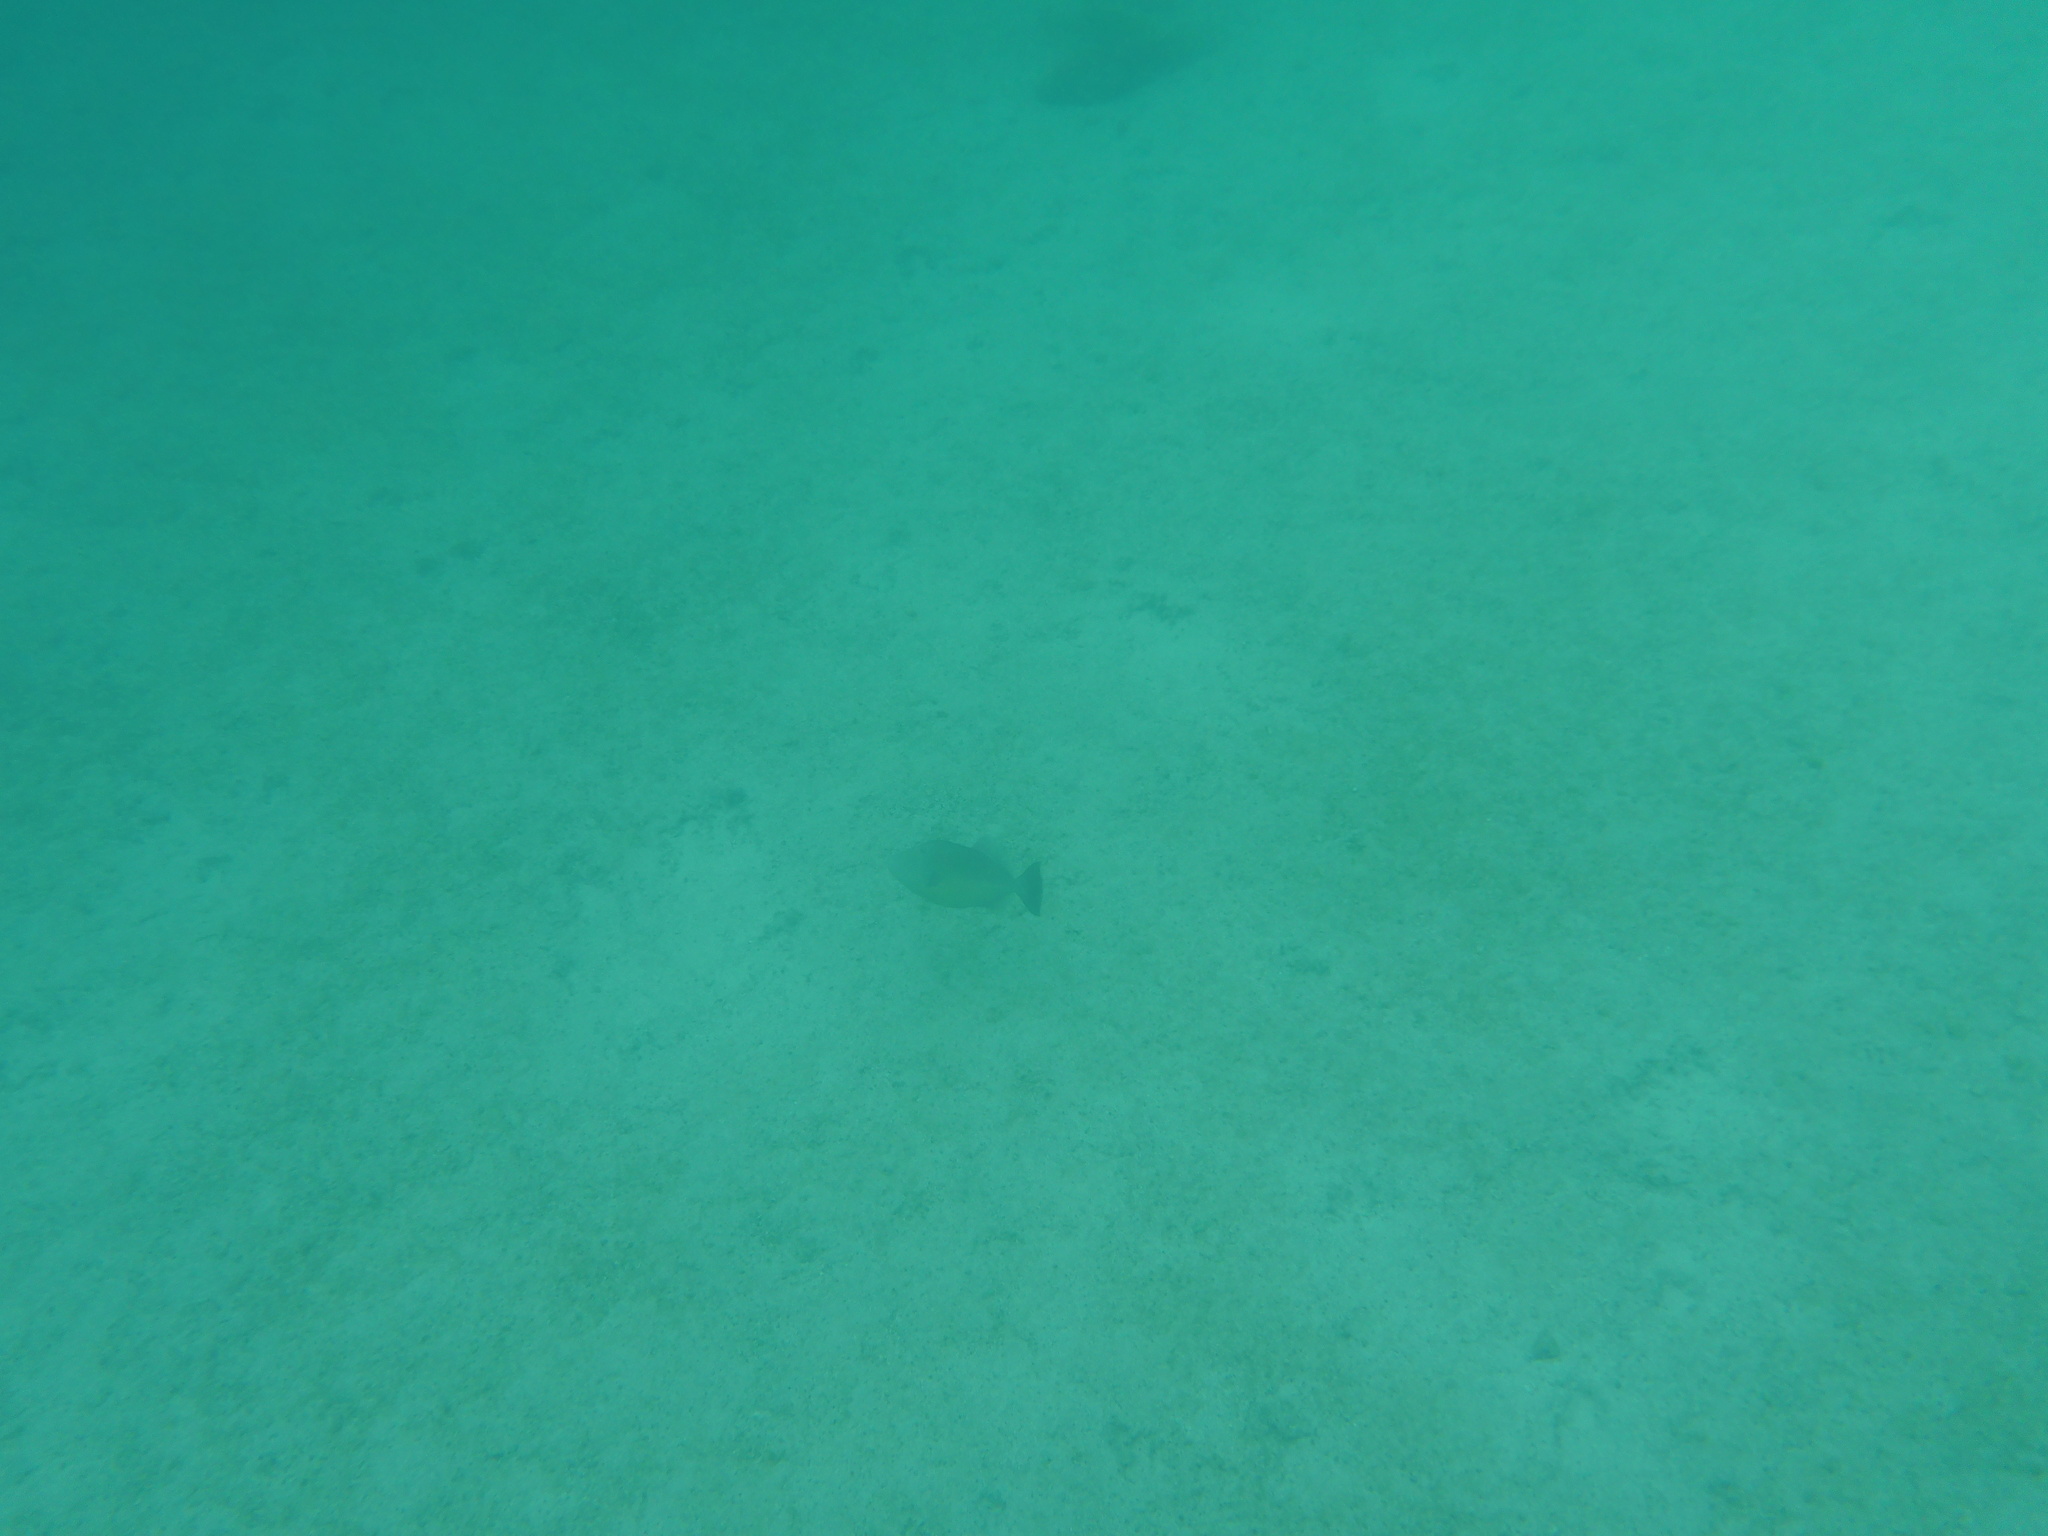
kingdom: Animalia
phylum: Chordata
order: Tetraodontiformes
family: Balistidae
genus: Sufflamen
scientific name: Sufflamen verres
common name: Orangeside triggerfish
